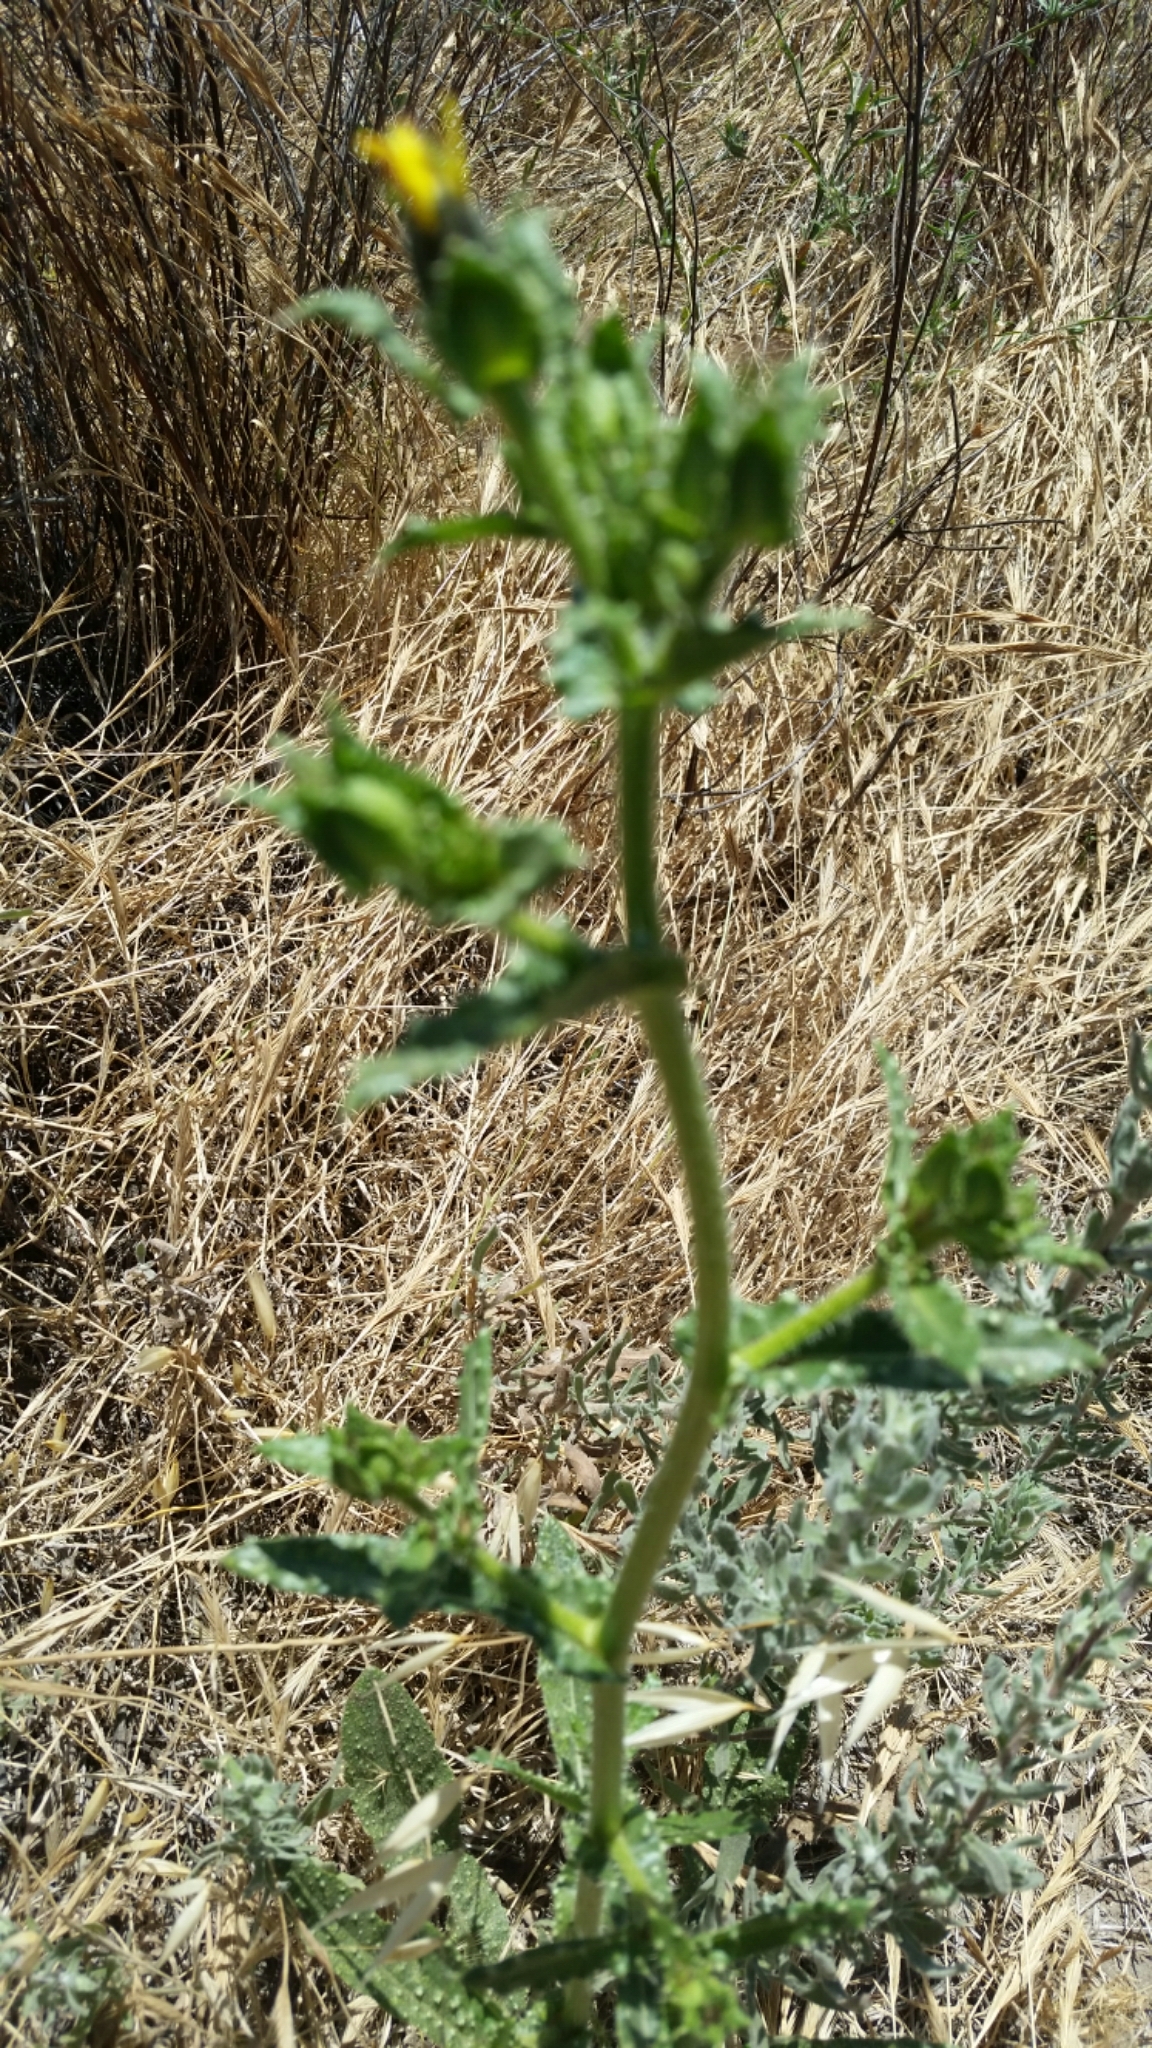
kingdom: Plantae
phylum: Tracheophyta
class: Magnoliopsida
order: Asterales
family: Asteraceae
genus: Helminthotheca
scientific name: Helminthotheca echioides
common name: Ox-tongue
